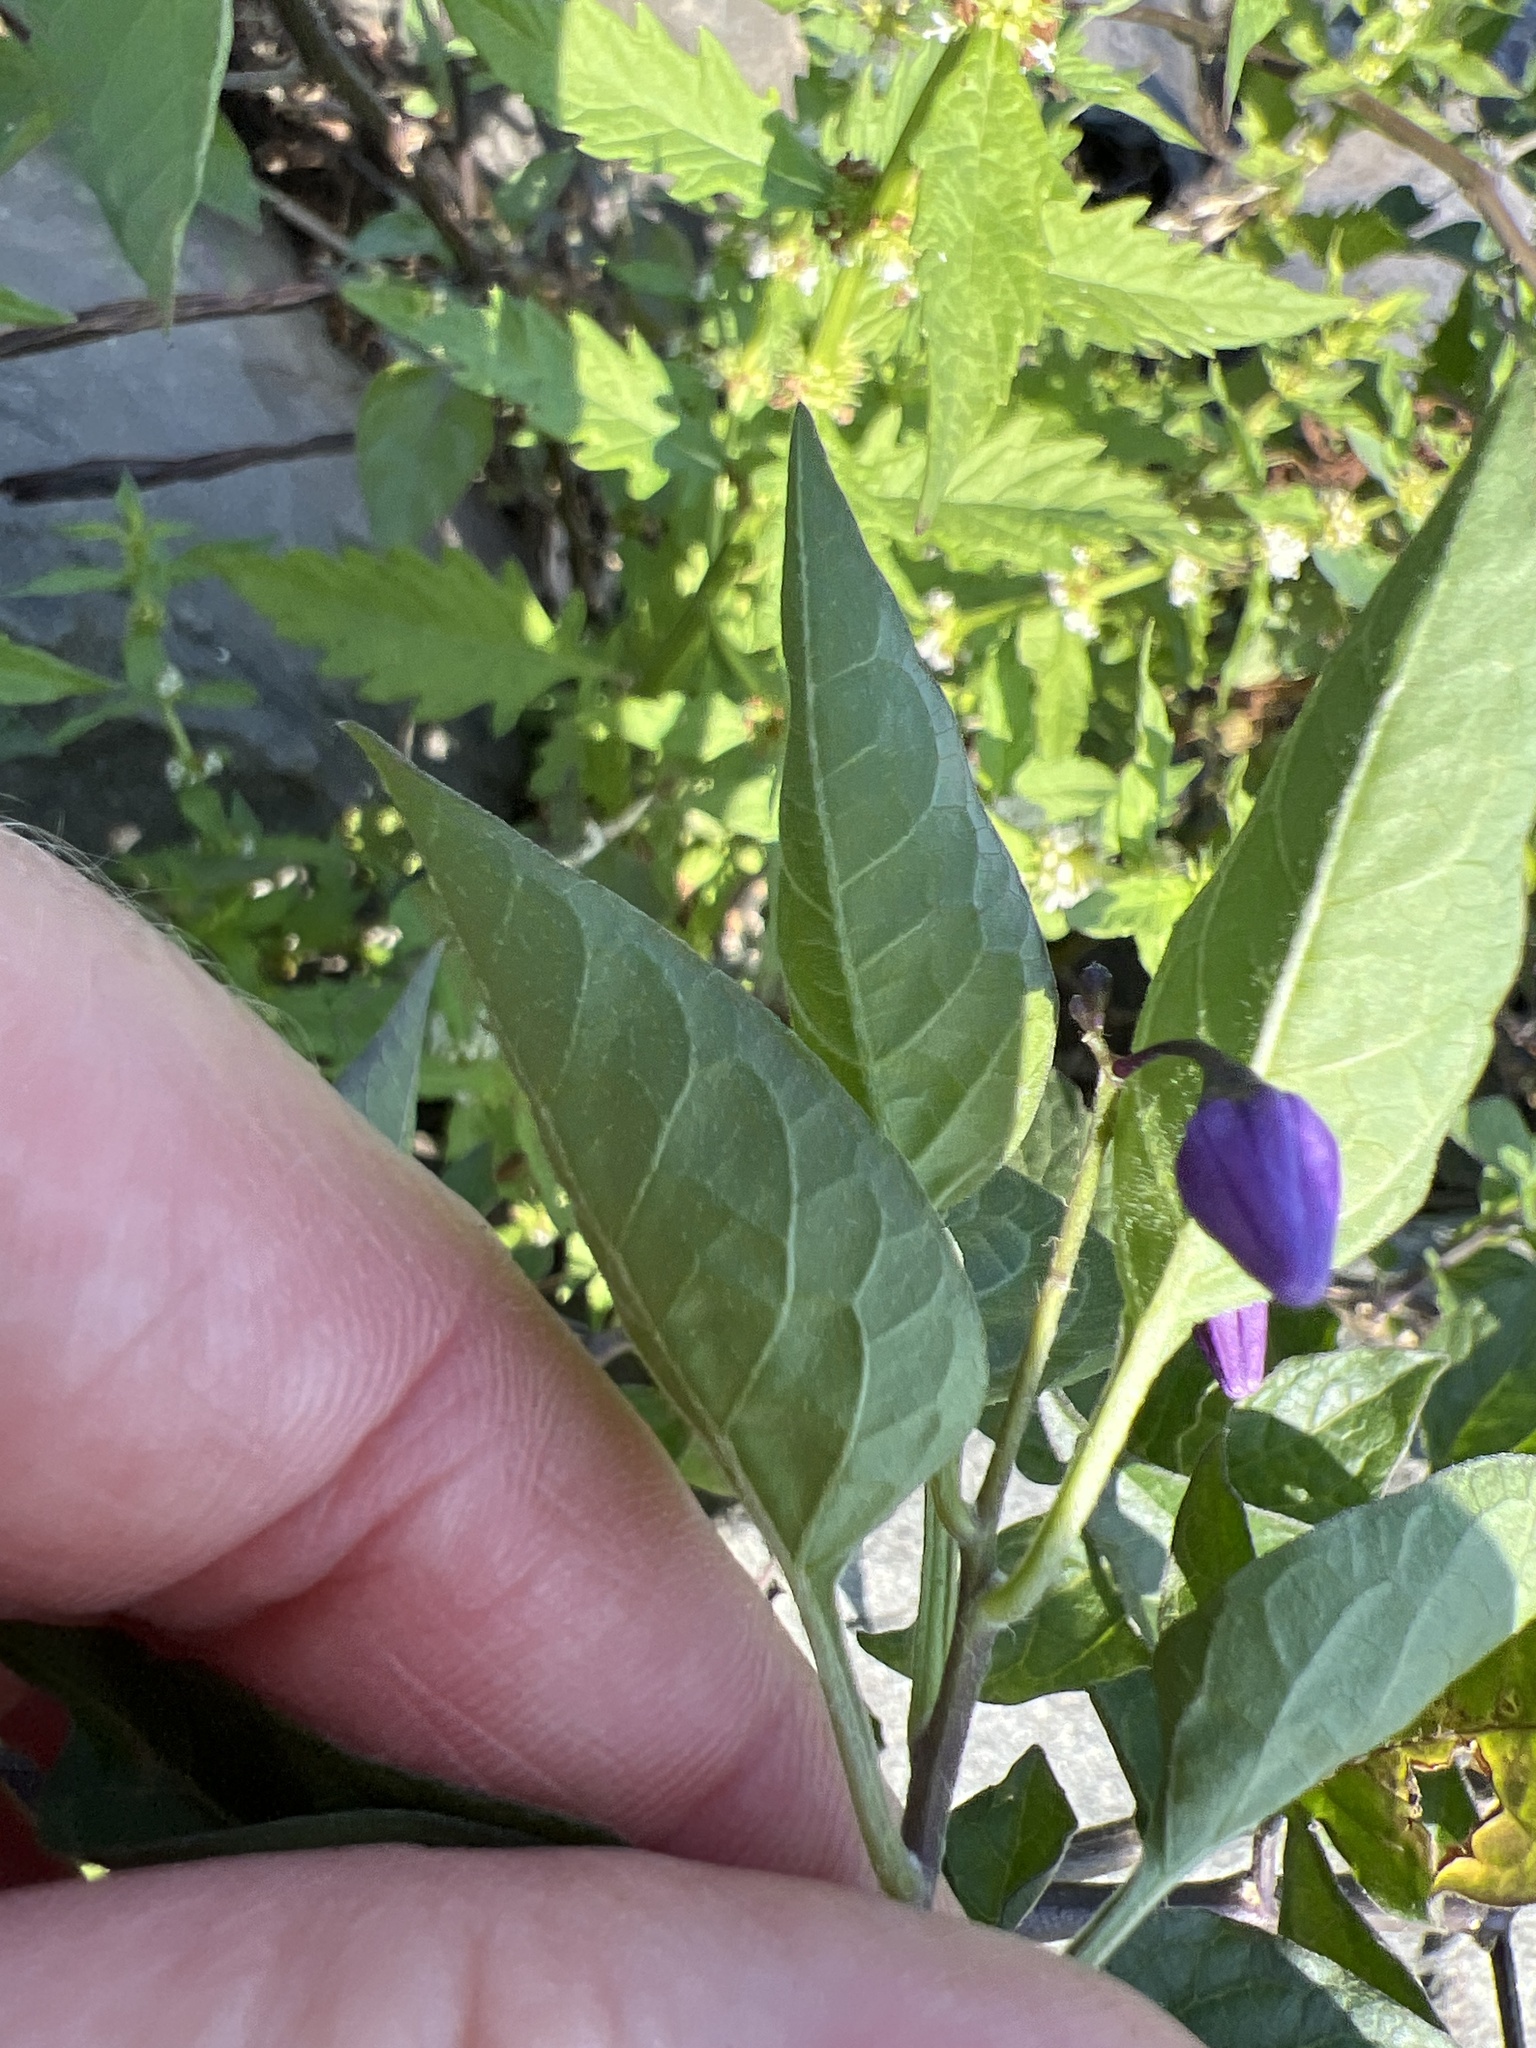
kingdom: Plantae
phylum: Tracheophyta
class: Magnoliopsida
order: Solanales
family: Solanaceae
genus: Solanum
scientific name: Solanum dulcamara
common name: Climbing nightshade
